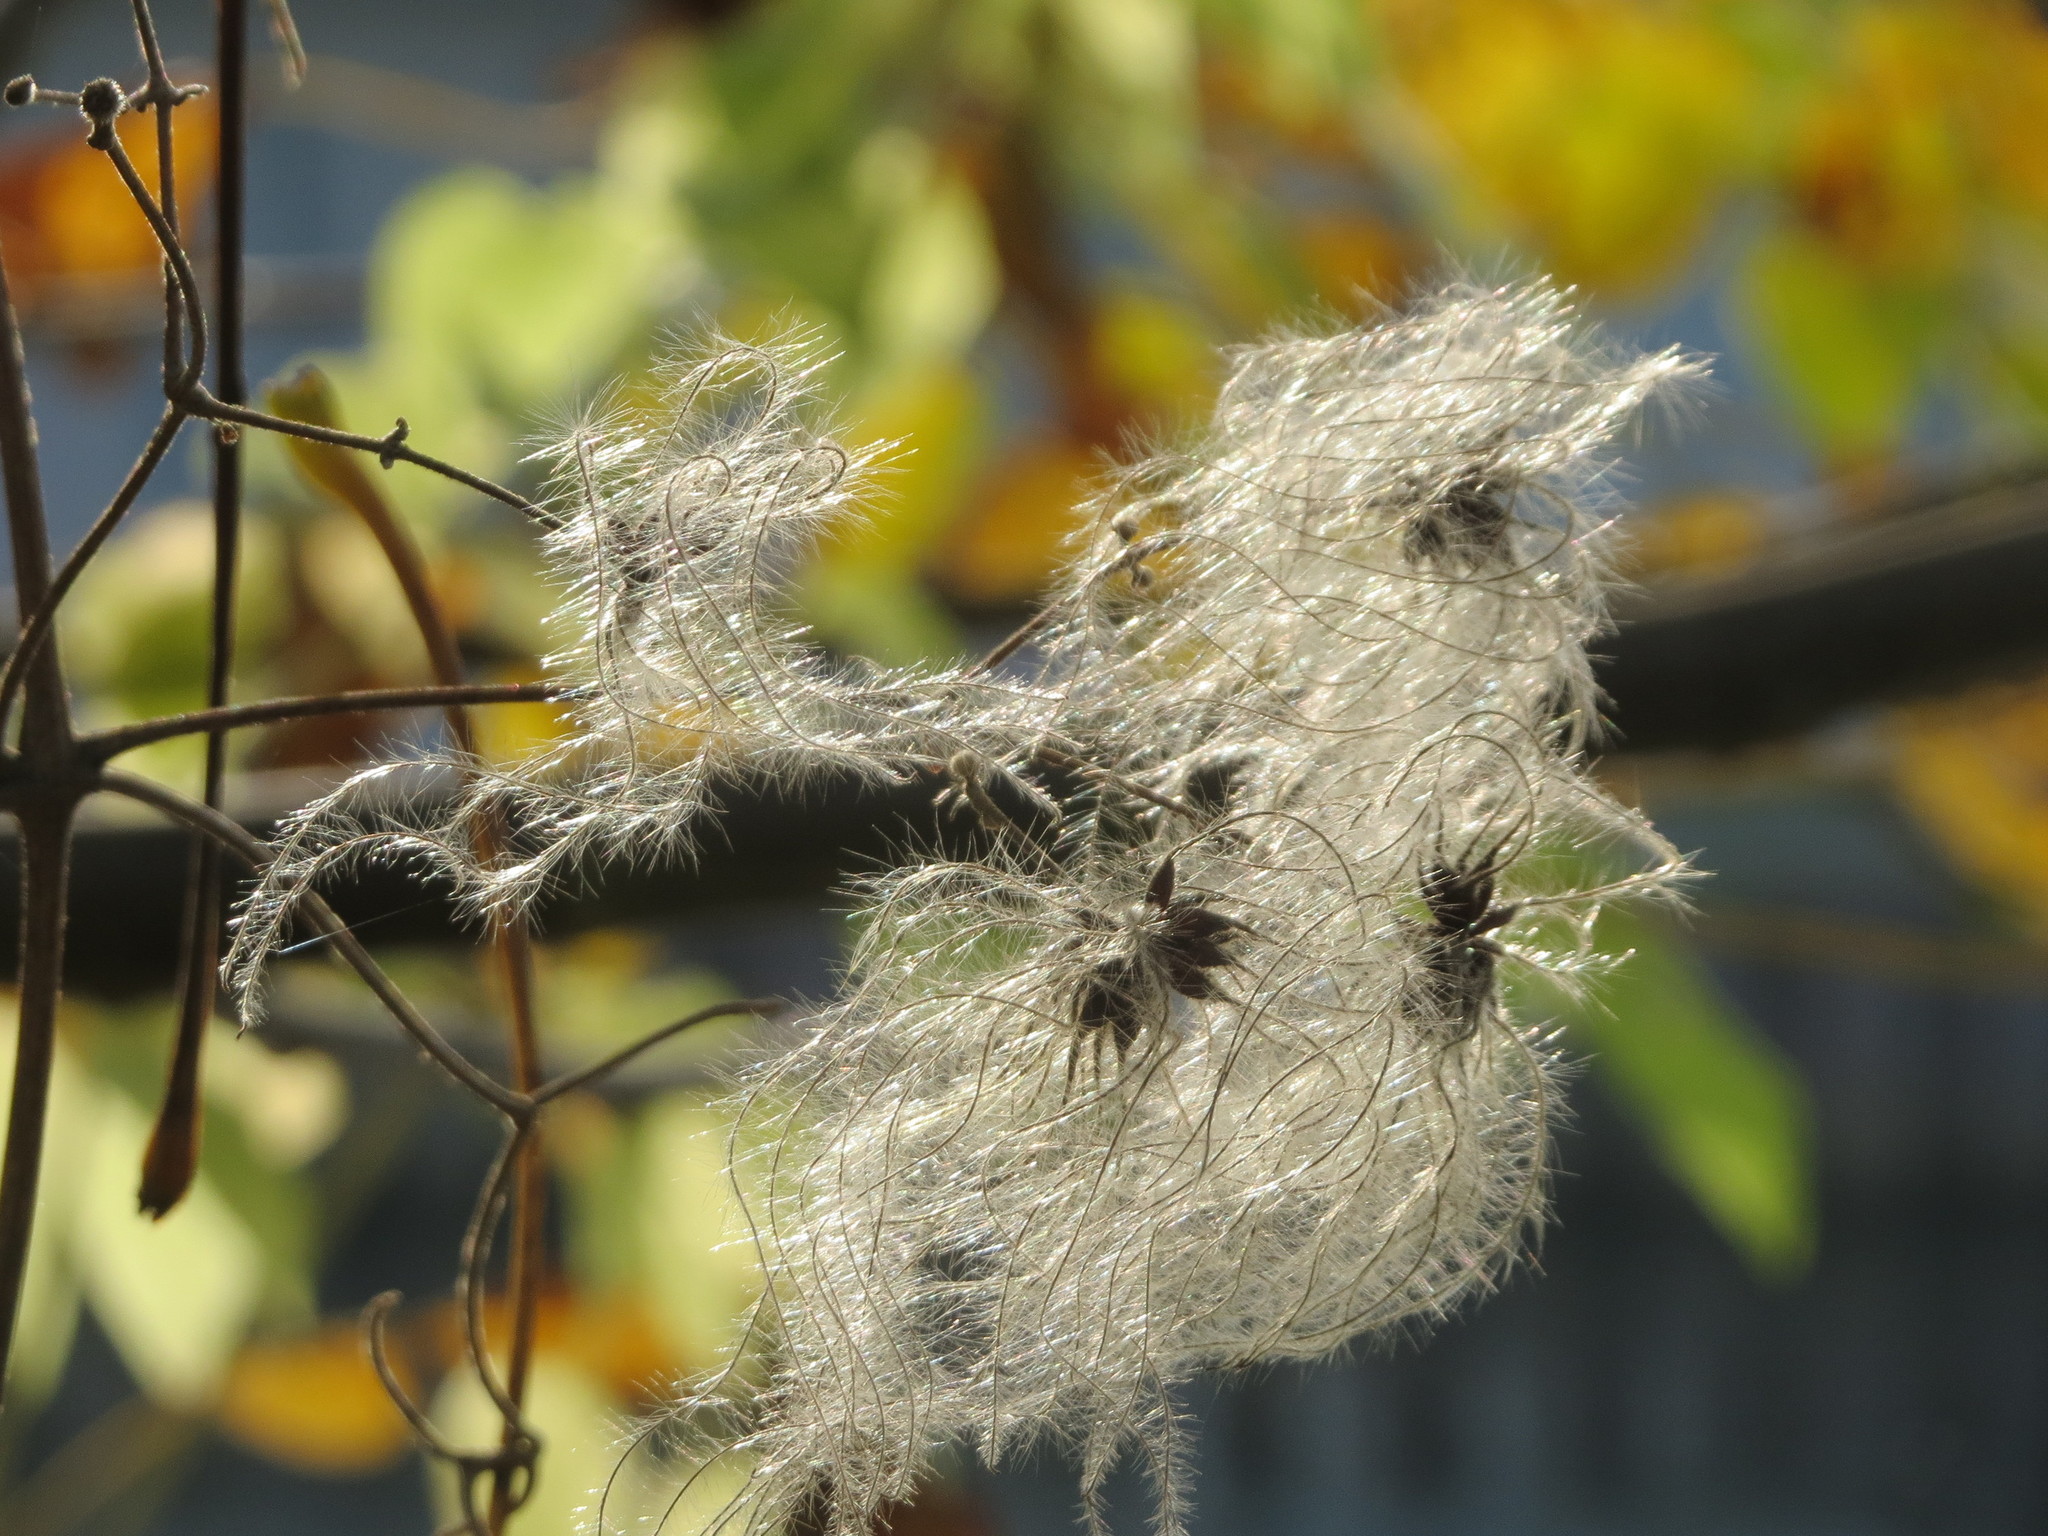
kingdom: Plantae
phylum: Tracheophyta
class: Magnoliopsida
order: Ranunculales
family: Ranunculaceae
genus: Clematis
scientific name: Clematis vitalba
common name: Evergreen clematis
